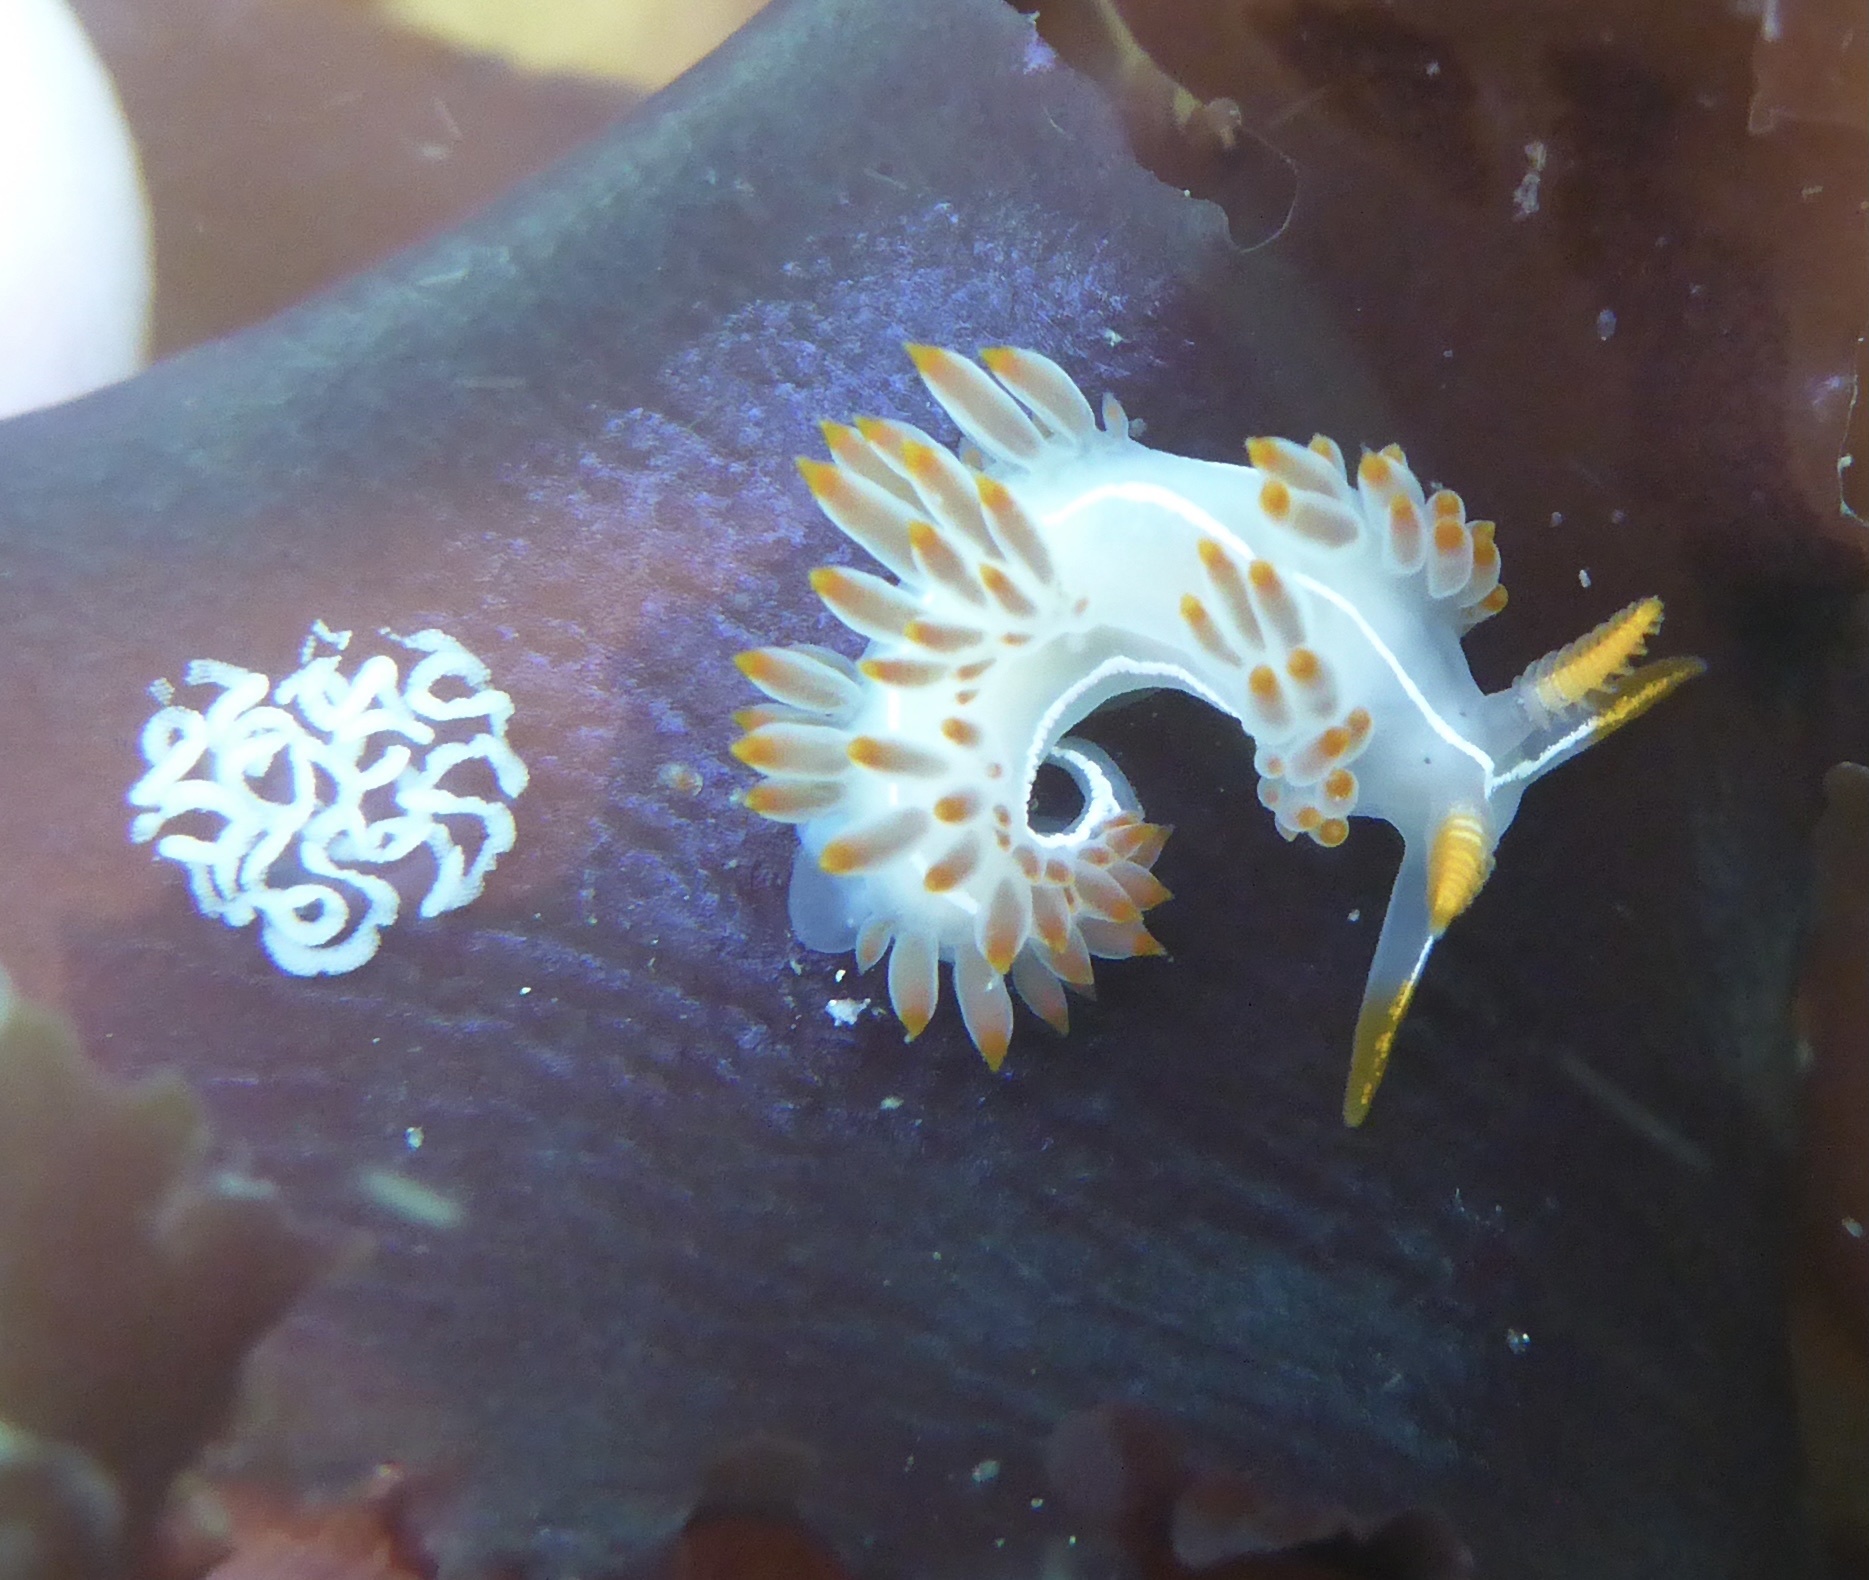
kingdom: Animalia
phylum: Mollusca
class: Gastropoda
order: Nudibranchia
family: Coryphellidae
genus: Coryphella
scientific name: Coryphella trilineata
